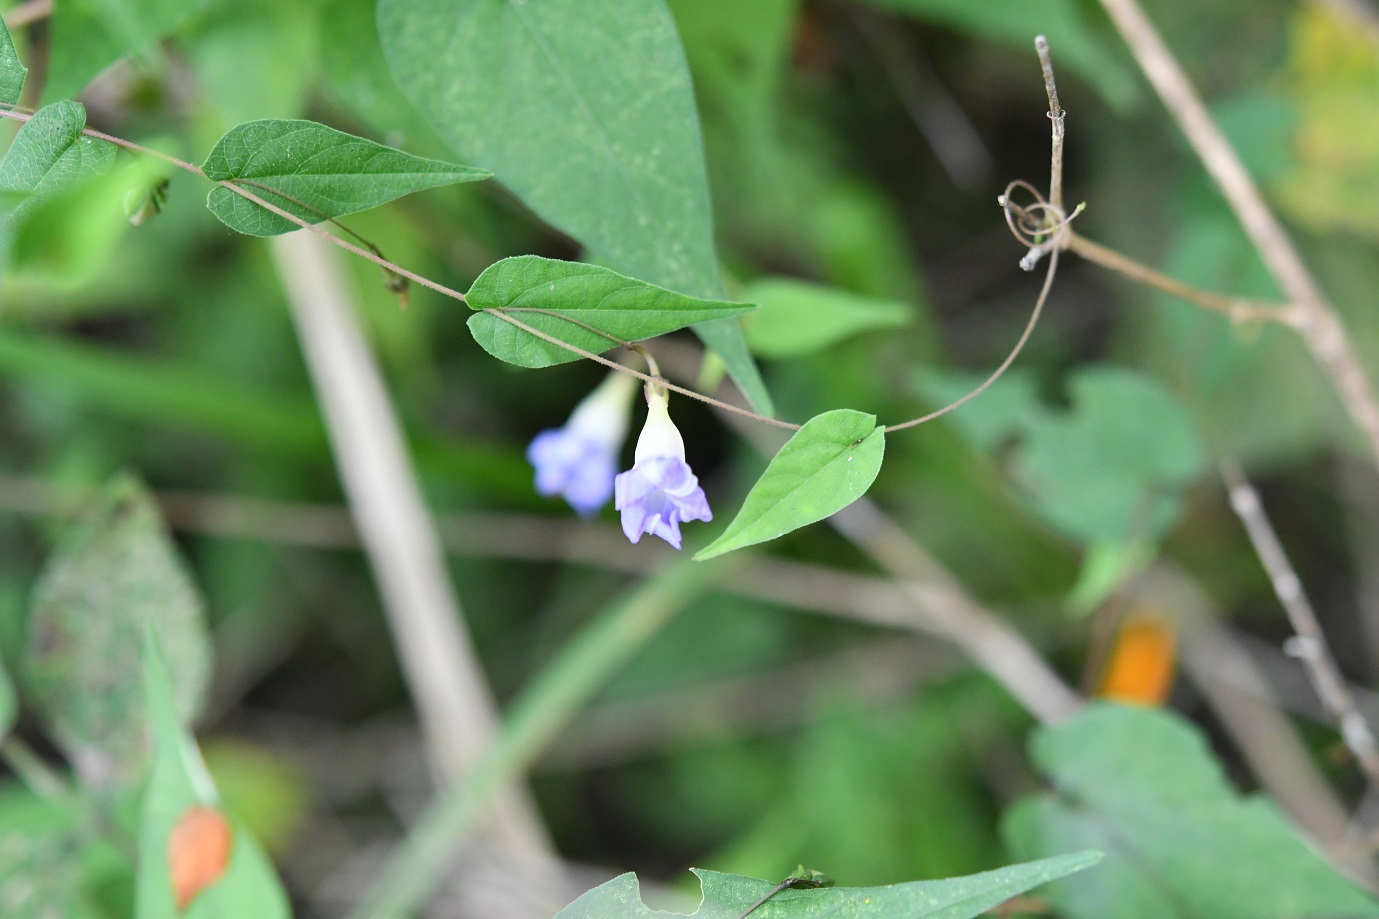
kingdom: Plantae
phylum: Tracheophyta
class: Magnoliopsida
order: Solanales
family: Convolvulaceae
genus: Ipomoea
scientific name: Ipomoea aristolochiifolia
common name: Aristolochia-leaved morning-glory
